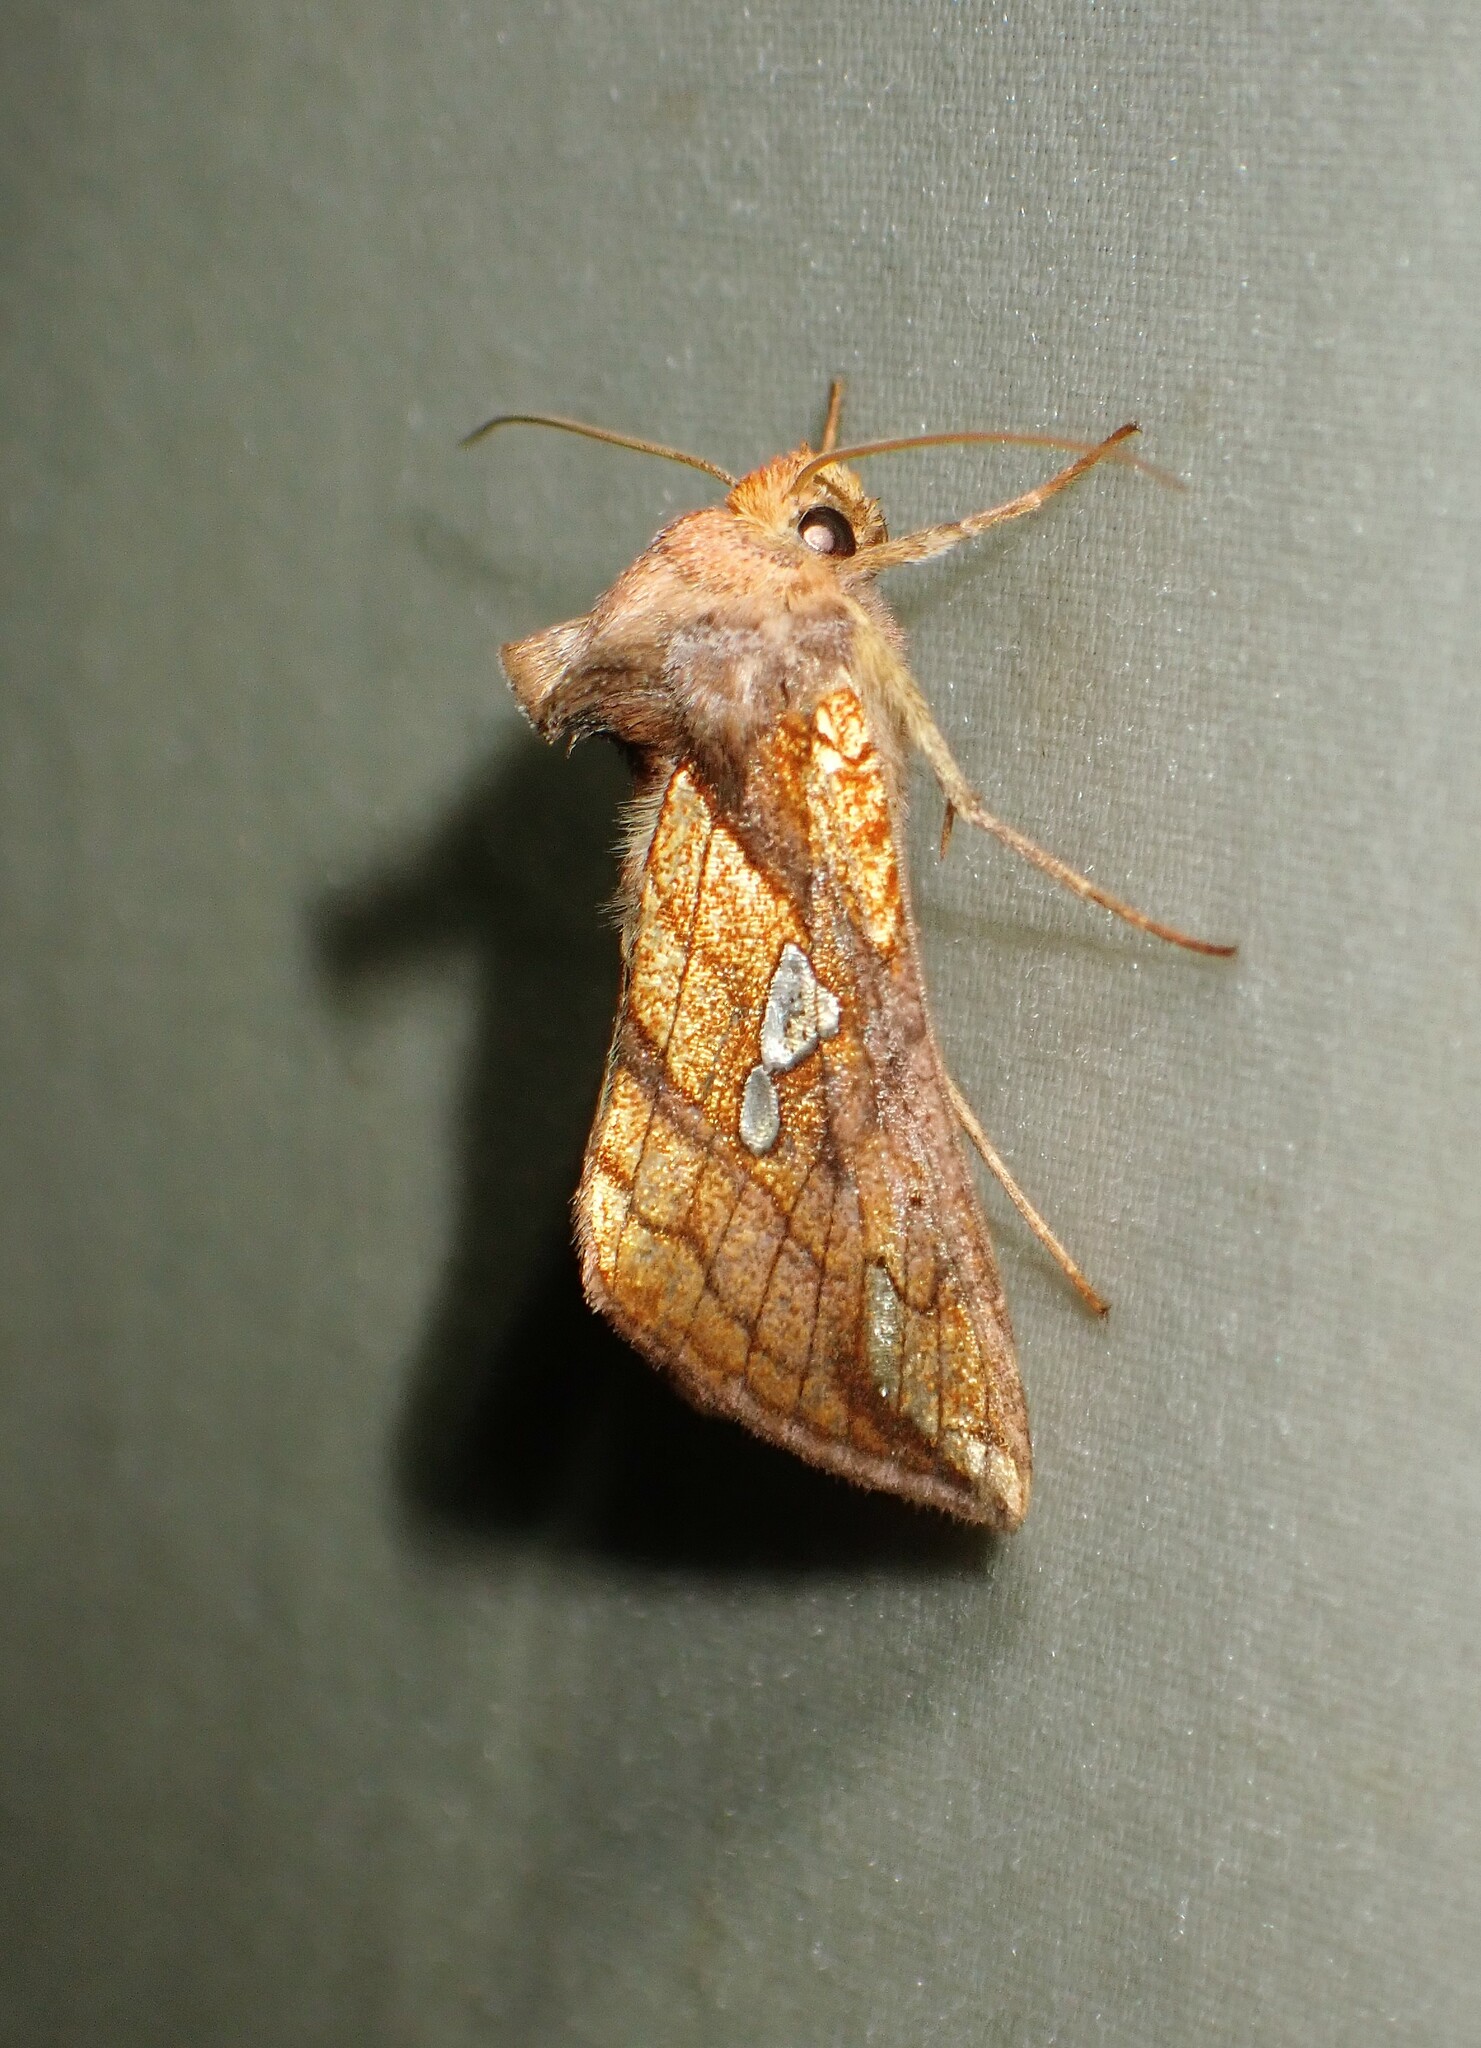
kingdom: Animalia
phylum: Arthropoda
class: Insecta
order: Lepidoptera
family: Noctuidae
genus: Plusia
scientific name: Plusia putnami
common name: Lempke's gold spot
